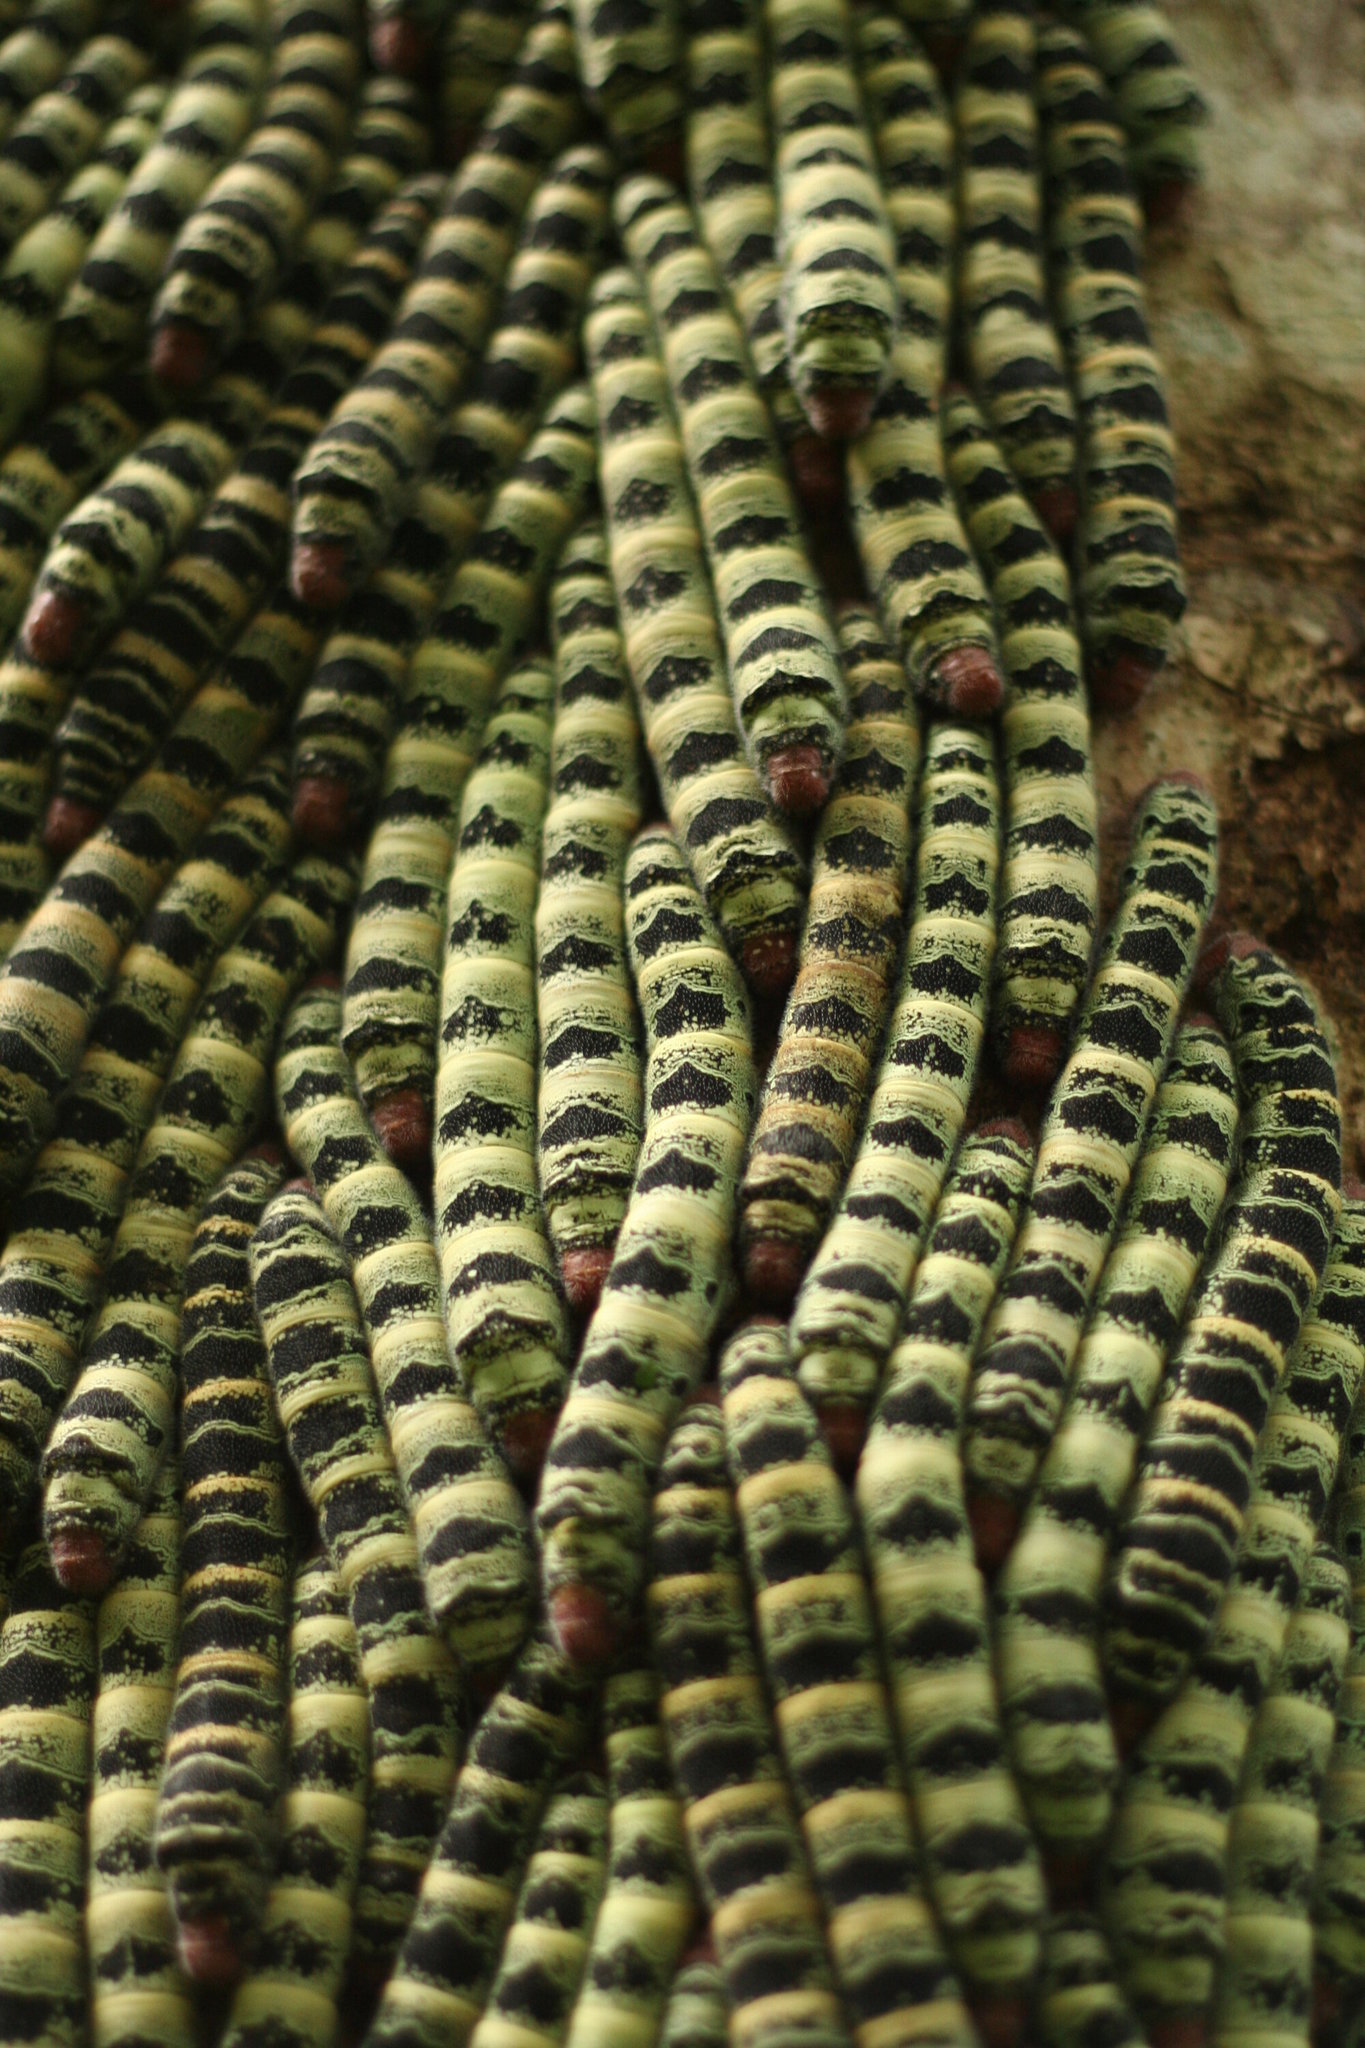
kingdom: Animalia
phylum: Arthropoda
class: Insecta
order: Lepidoptera
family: Saturniidae
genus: Arsenura
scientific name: Arsenura armida
